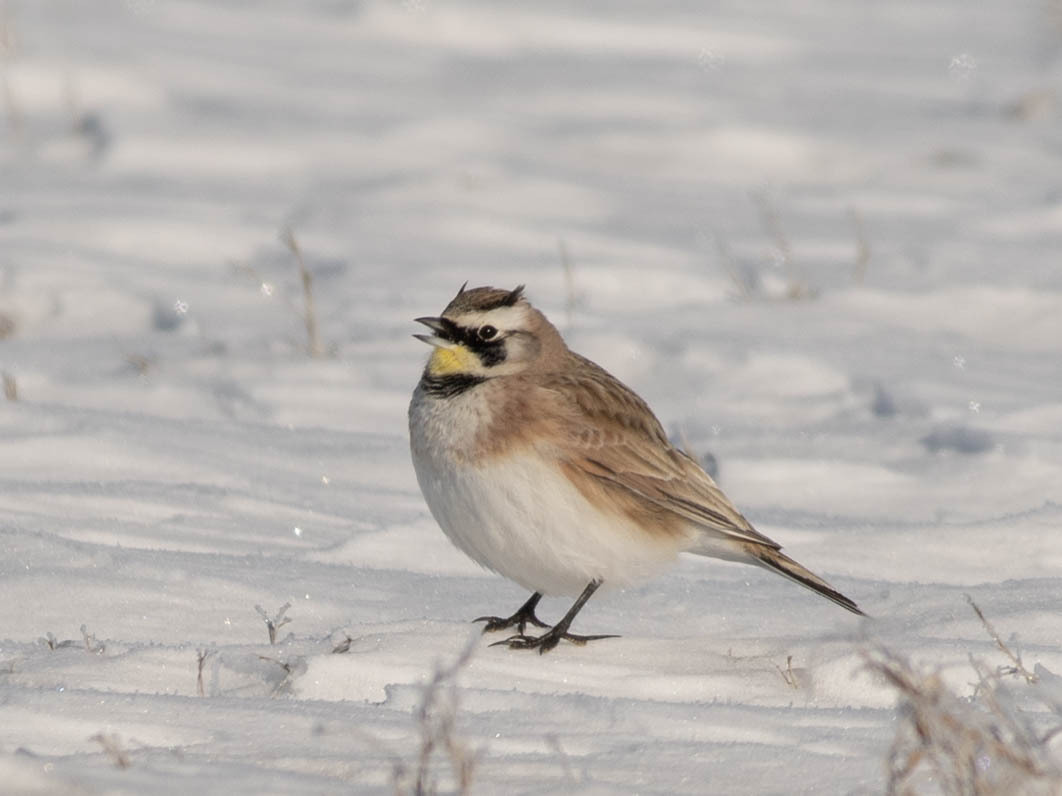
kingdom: Animalia
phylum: Chordata
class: Aves
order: Passeriformes
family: Alaudidae
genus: Eremophila
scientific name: Eremophila alpestris
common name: Horned lark
